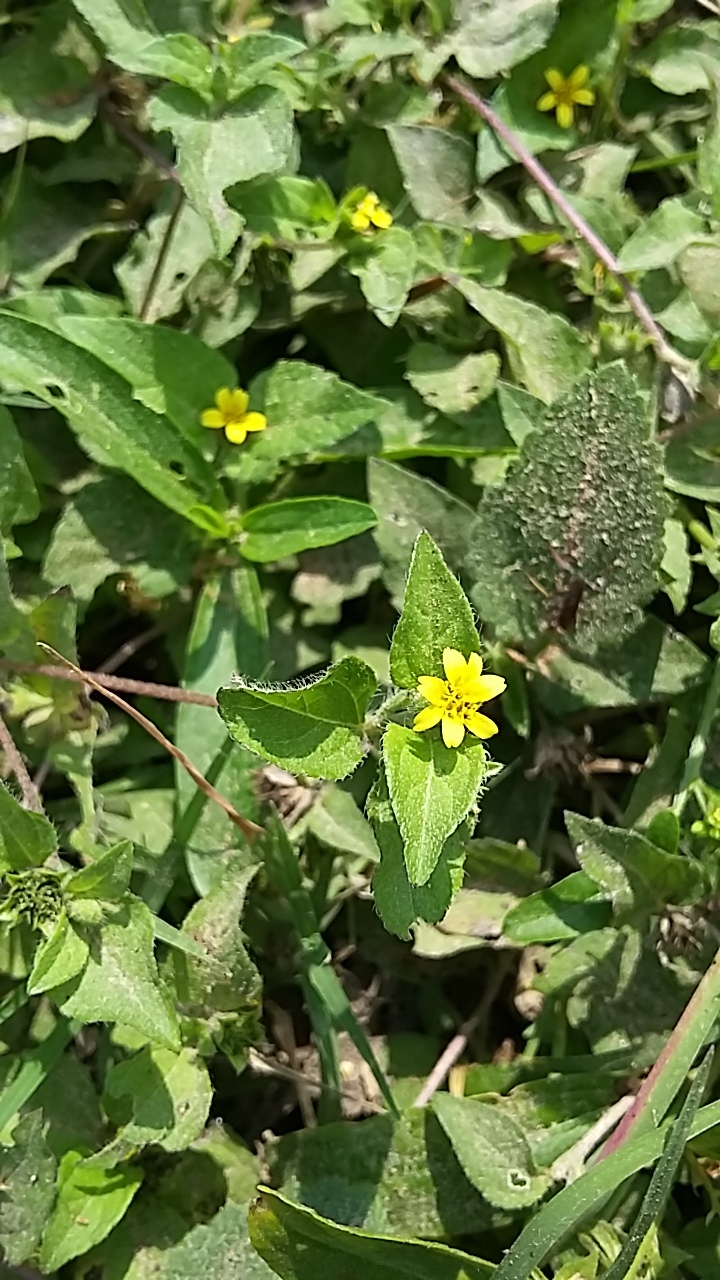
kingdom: Plantae
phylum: Tracheophyta
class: Magnoliopsida
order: Asterales
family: Asteraceae
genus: Calyptocarpus
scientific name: Calyptocarpus vialis
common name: Straggler daisy
